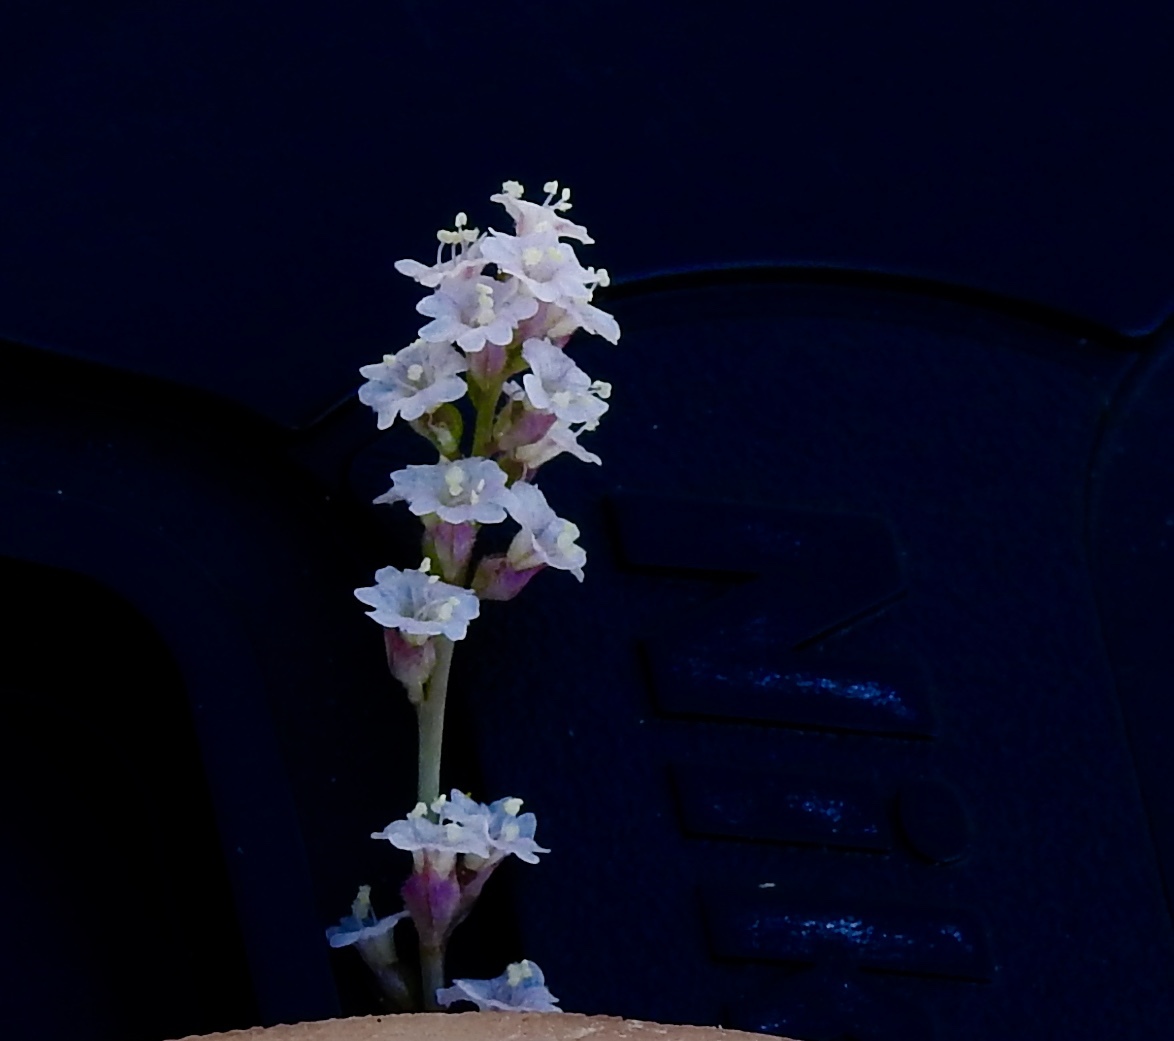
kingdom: Plantae
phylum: Tracheophyta
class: Magnoliopsida
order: Caryophyllales
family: Nyctaginaceae
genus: Boerhavia
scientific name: Boerhavia erecta
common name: Erect spiderling
